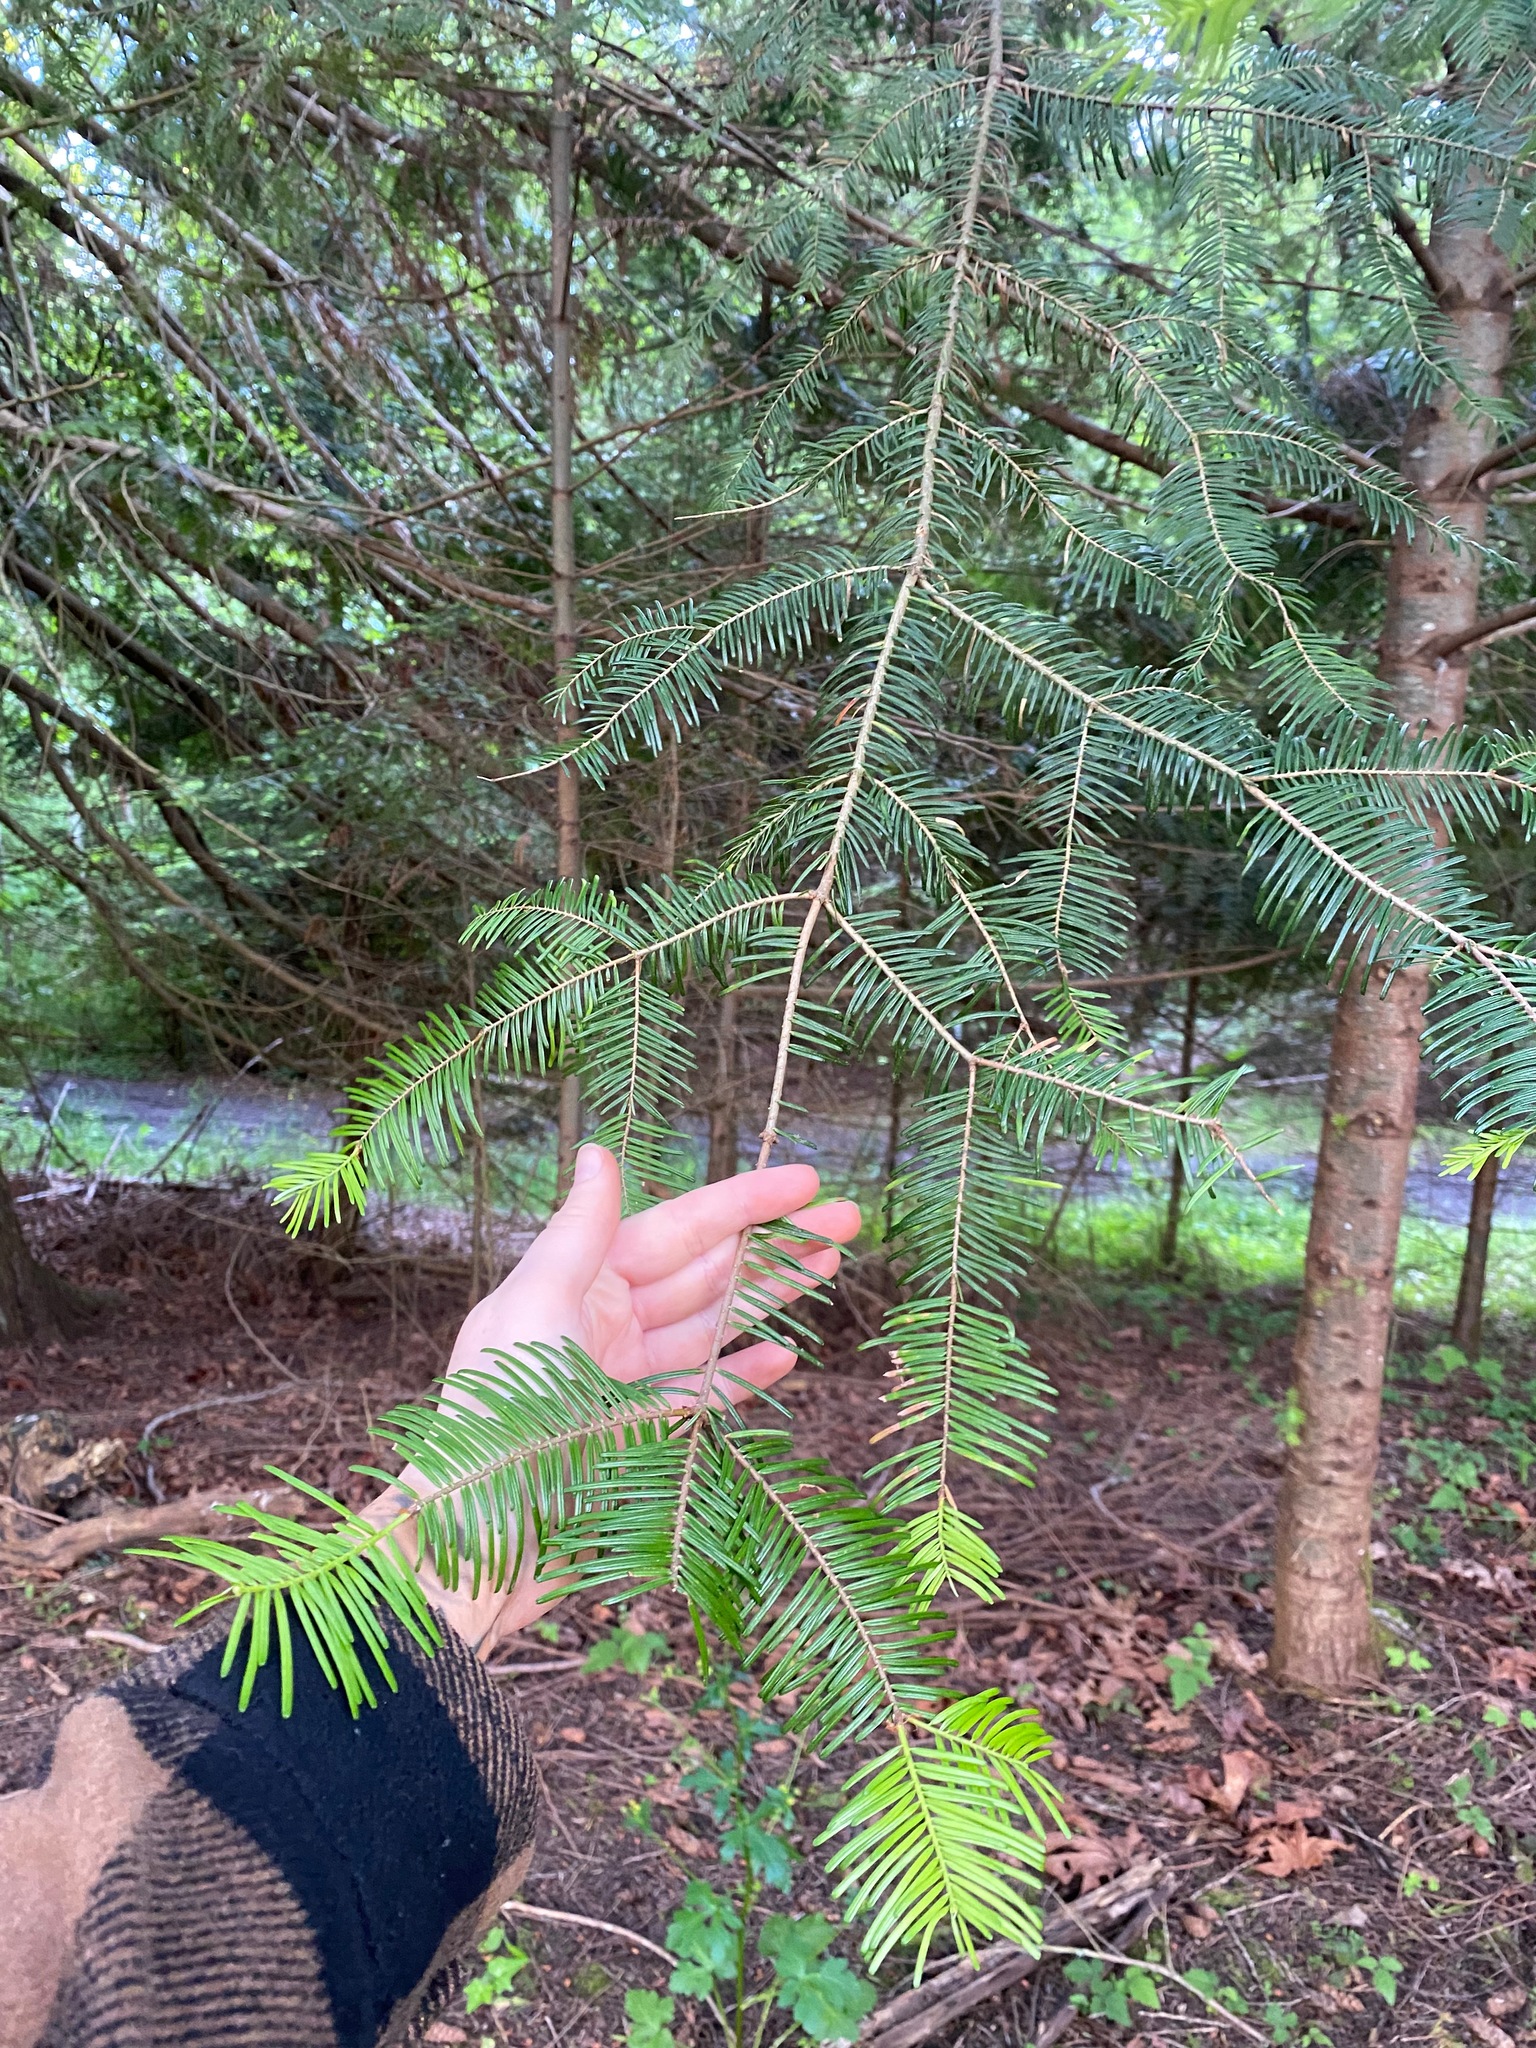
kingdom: Plantae
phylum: Tracheophyta
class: Pinopsida
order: Pinales
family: Pinaceae
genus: Abies
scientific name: Abies grandis
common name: Giant fir
